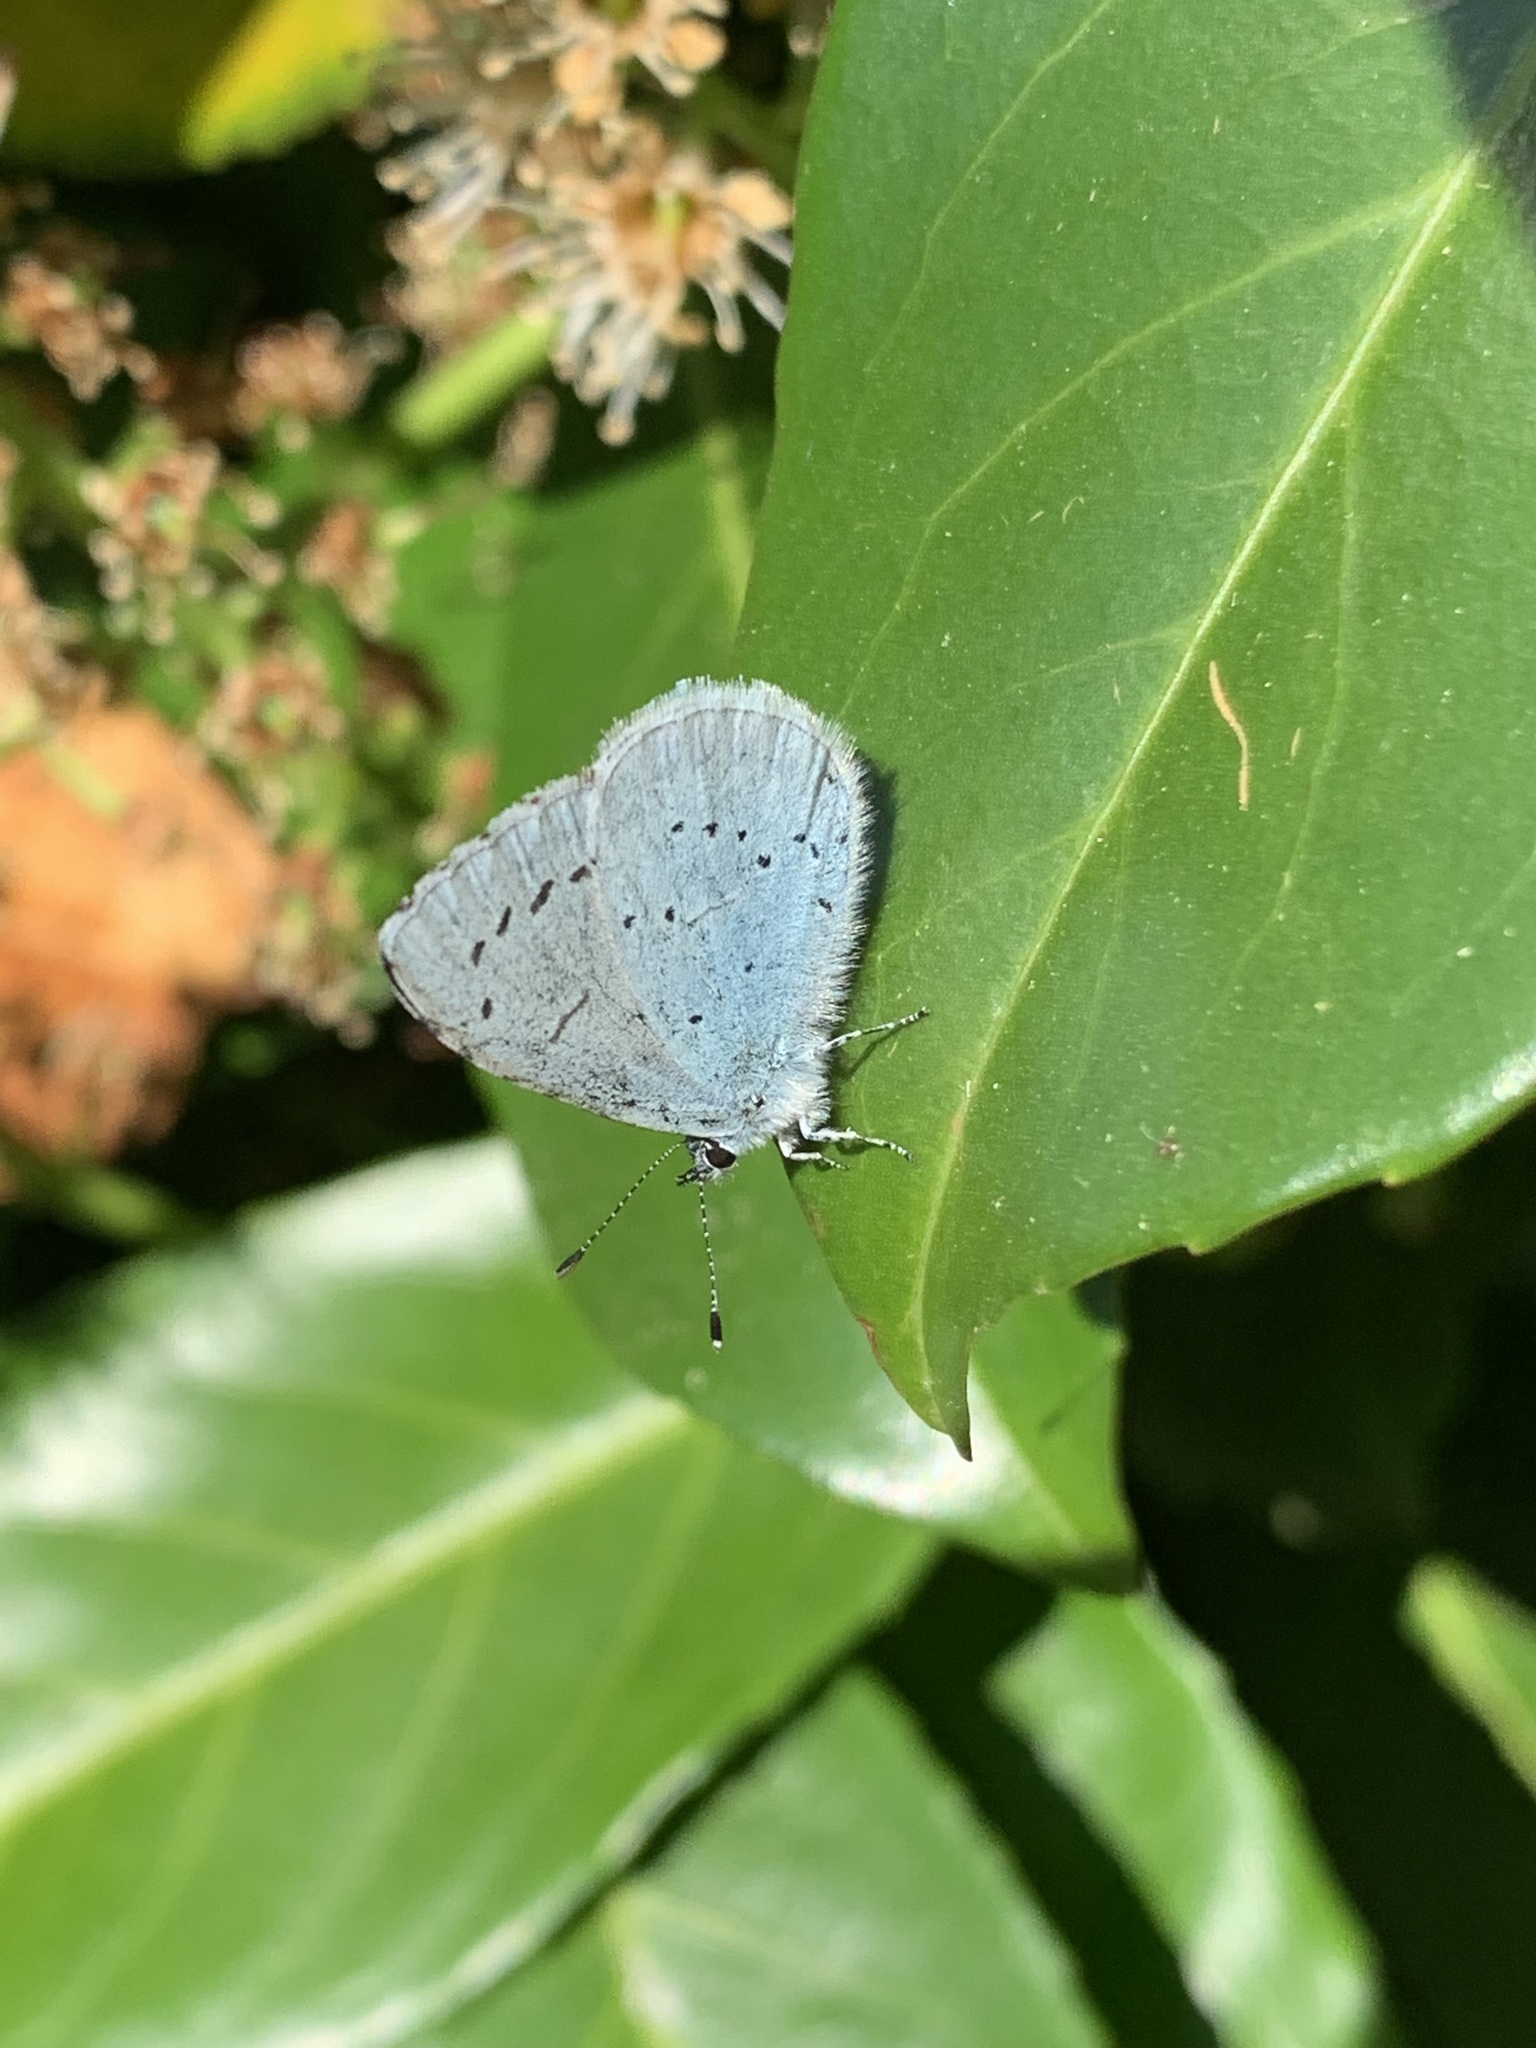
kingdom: Animalia
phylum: Arthropoda
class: Insecta
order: Lepidoptera
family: Lycaenidae
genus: Celastrina
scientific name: Celastrina argiolus
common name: Holly blue
